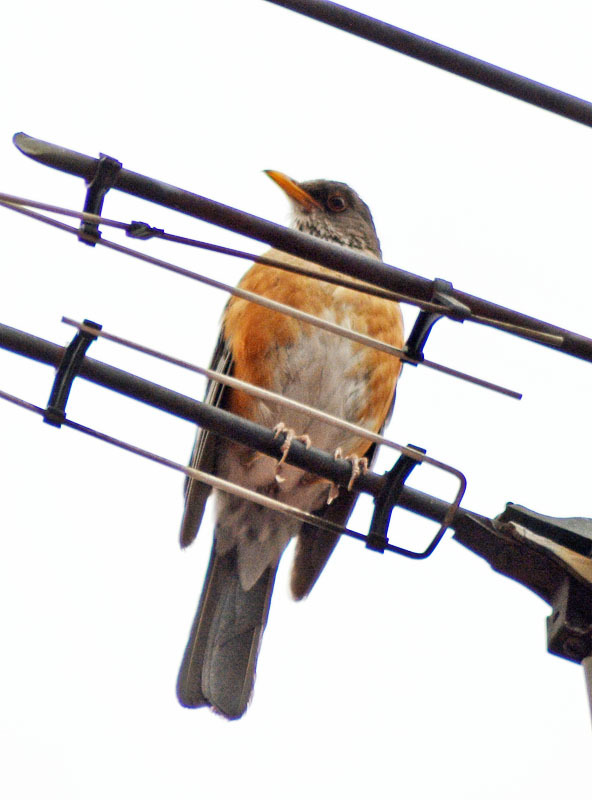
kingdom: Animalia
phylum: Chordata
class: Aves
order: Passeriformes
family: Turdidae
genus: Turdus
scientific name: Turdus rufopalliatus
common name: Rufous-backed robin
